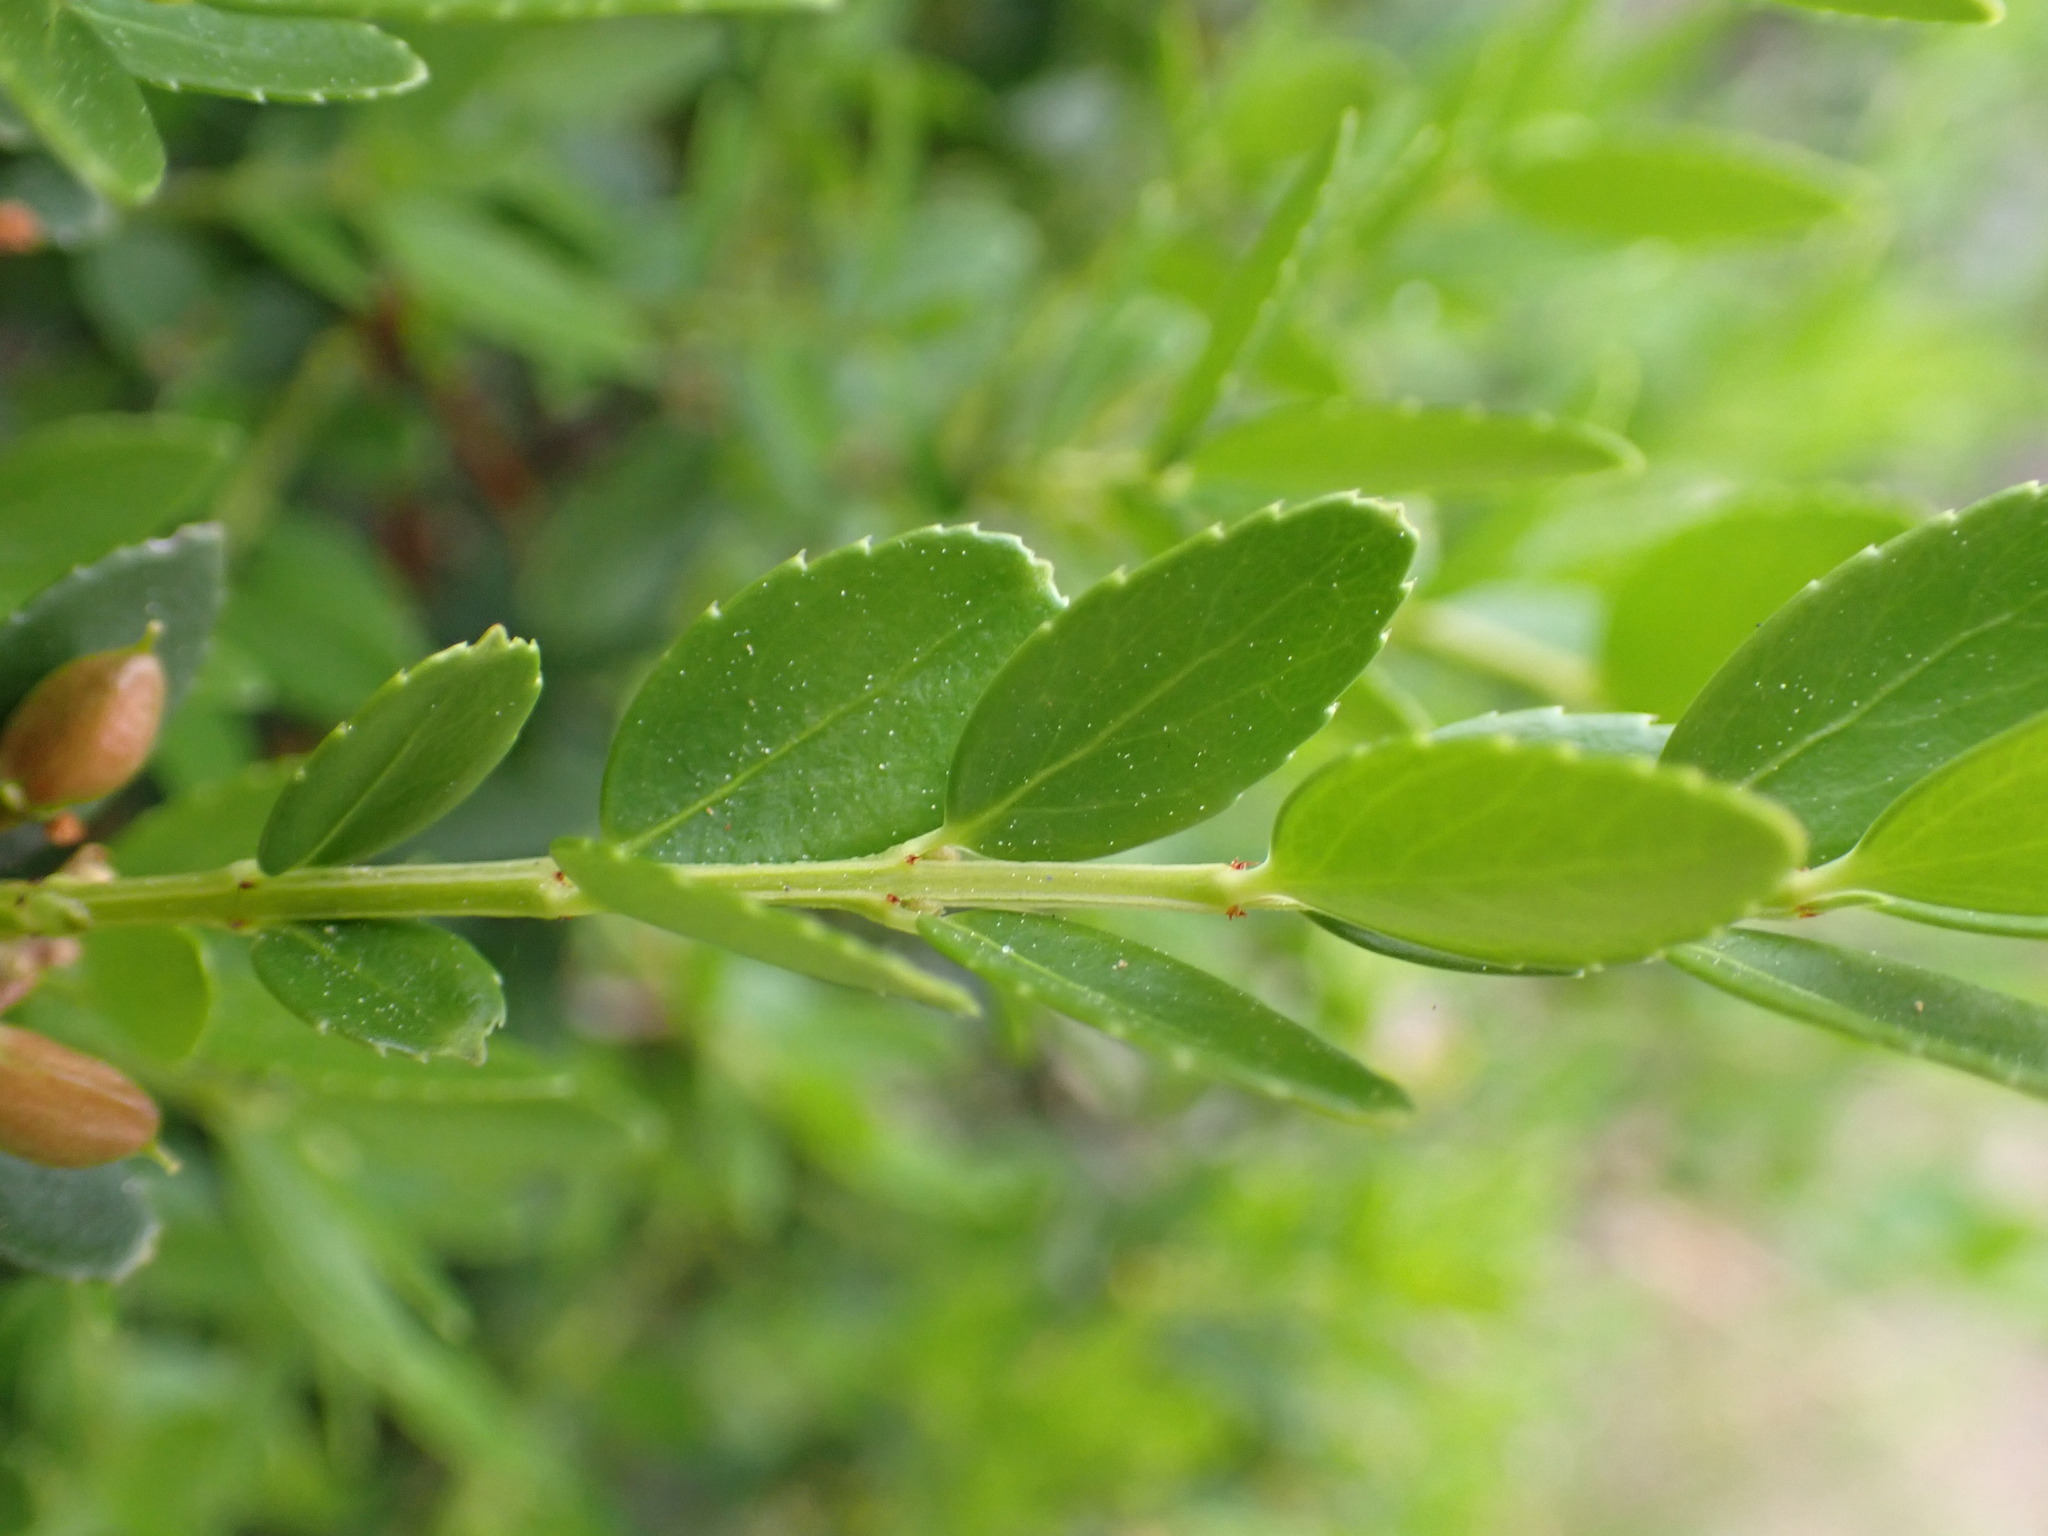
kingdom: Plantae
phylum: Tracheophyta
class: Magnoliopsida
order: Celastrales
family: Celastraceae
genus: Paxistima
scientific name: Paxistima myrsinites
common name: Mountain-lover
